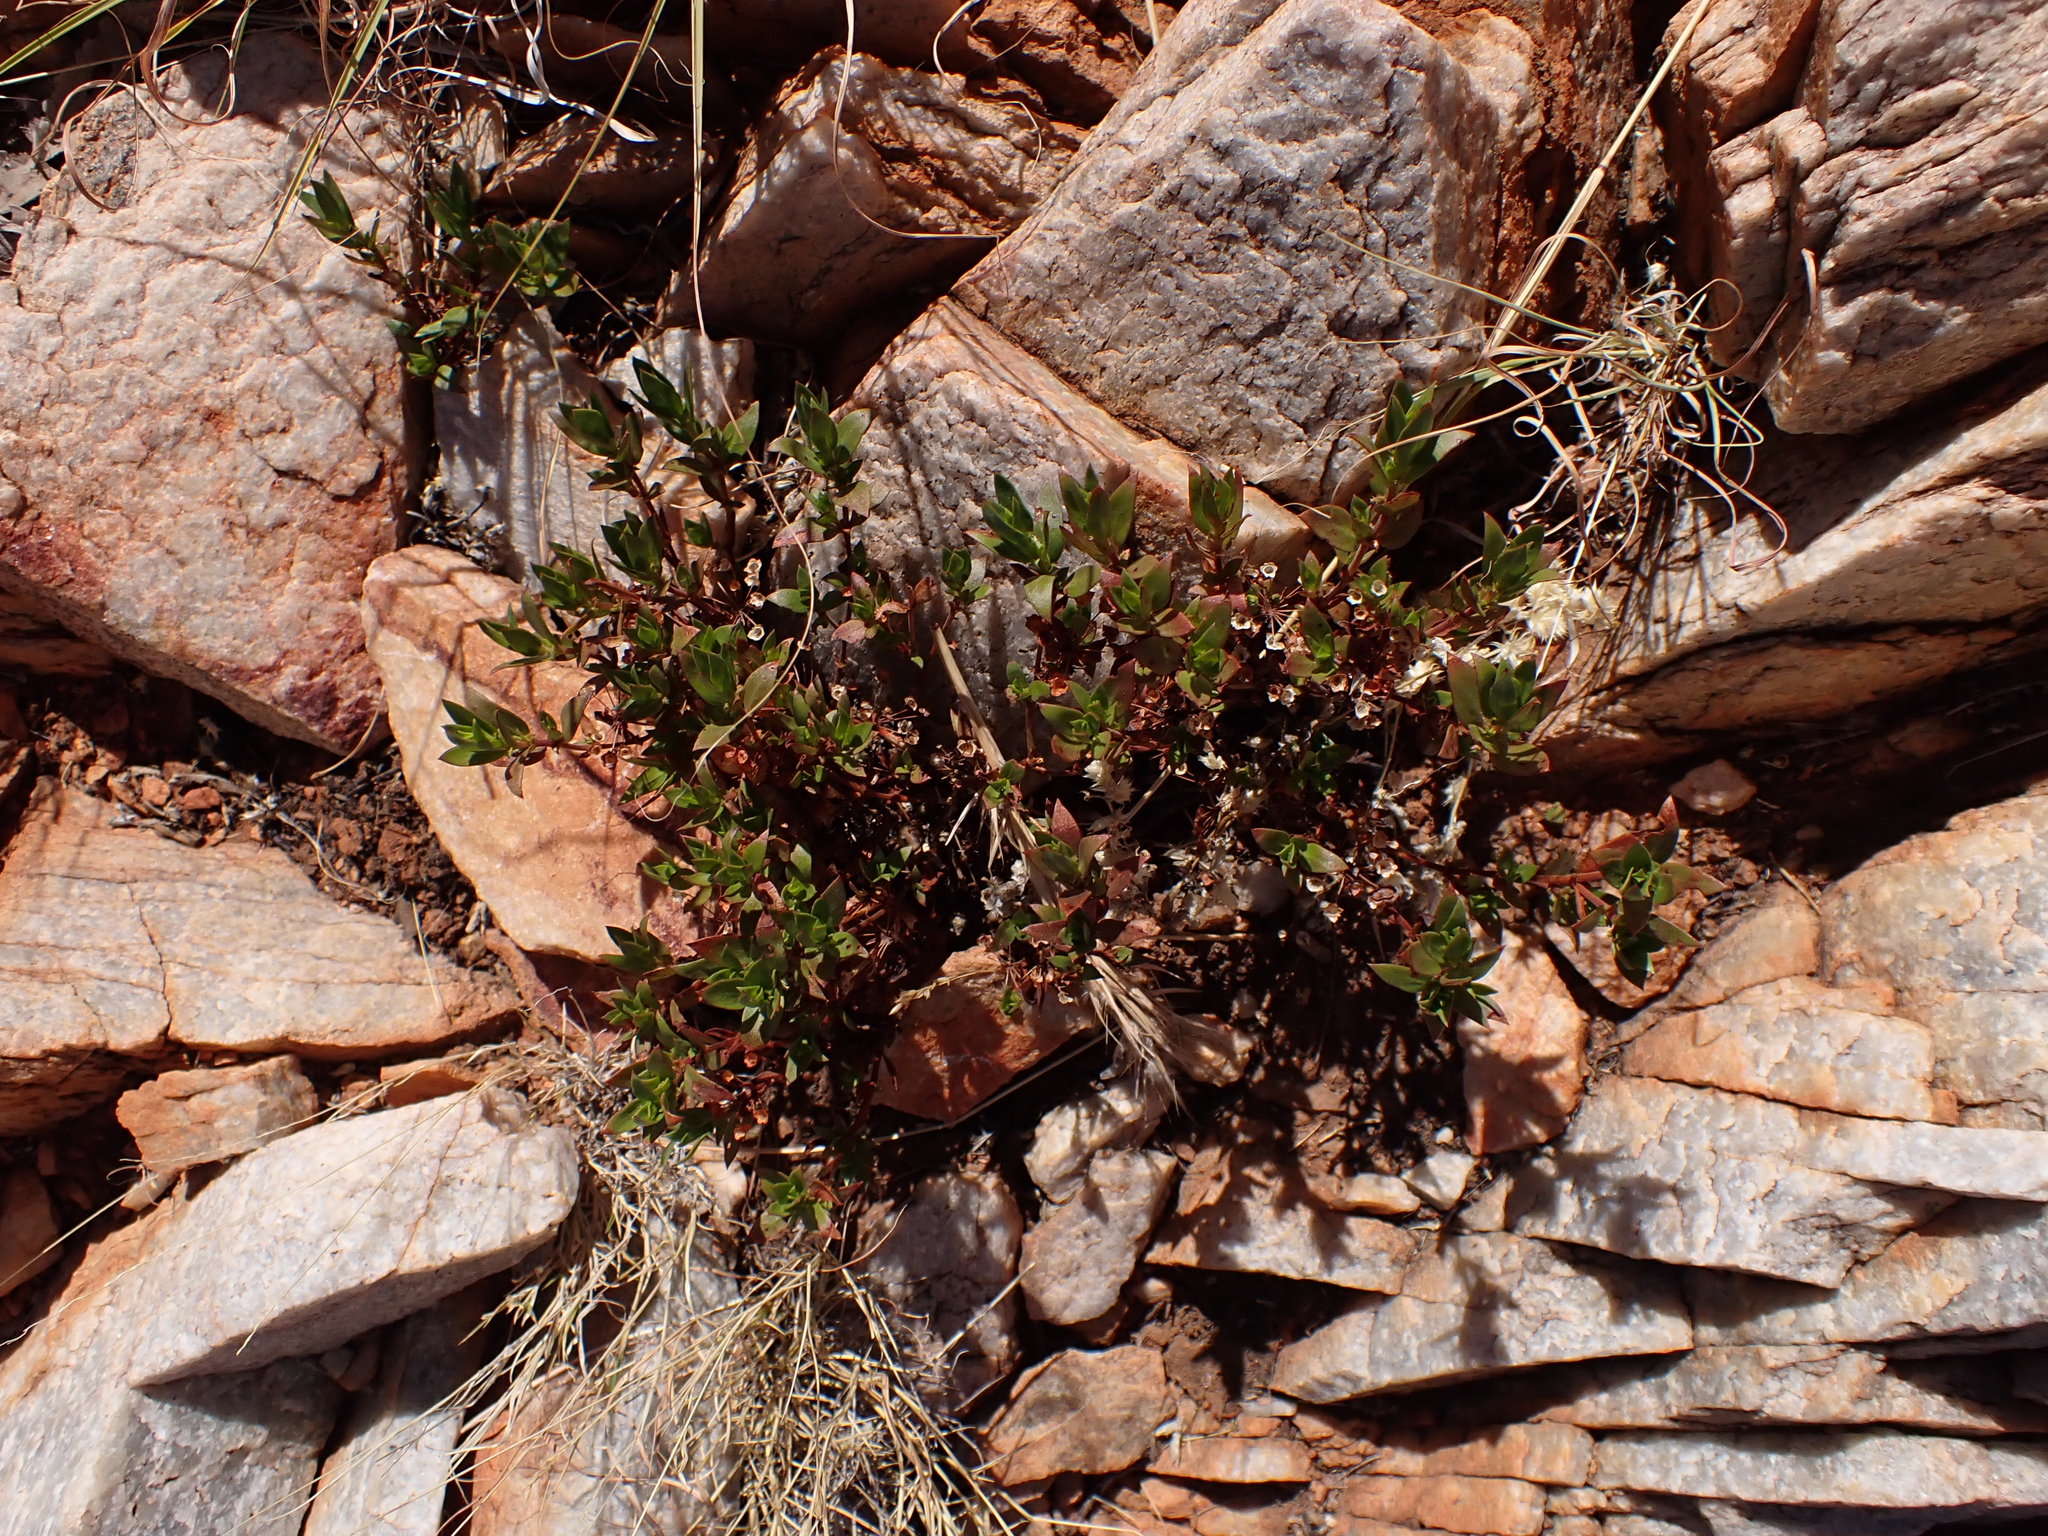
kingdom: Plantae
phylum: Tracheophyta
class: Magnoliopsida
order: Gentianales
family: Rubiaceae
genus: Pomax
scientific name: Pomax umbellata
